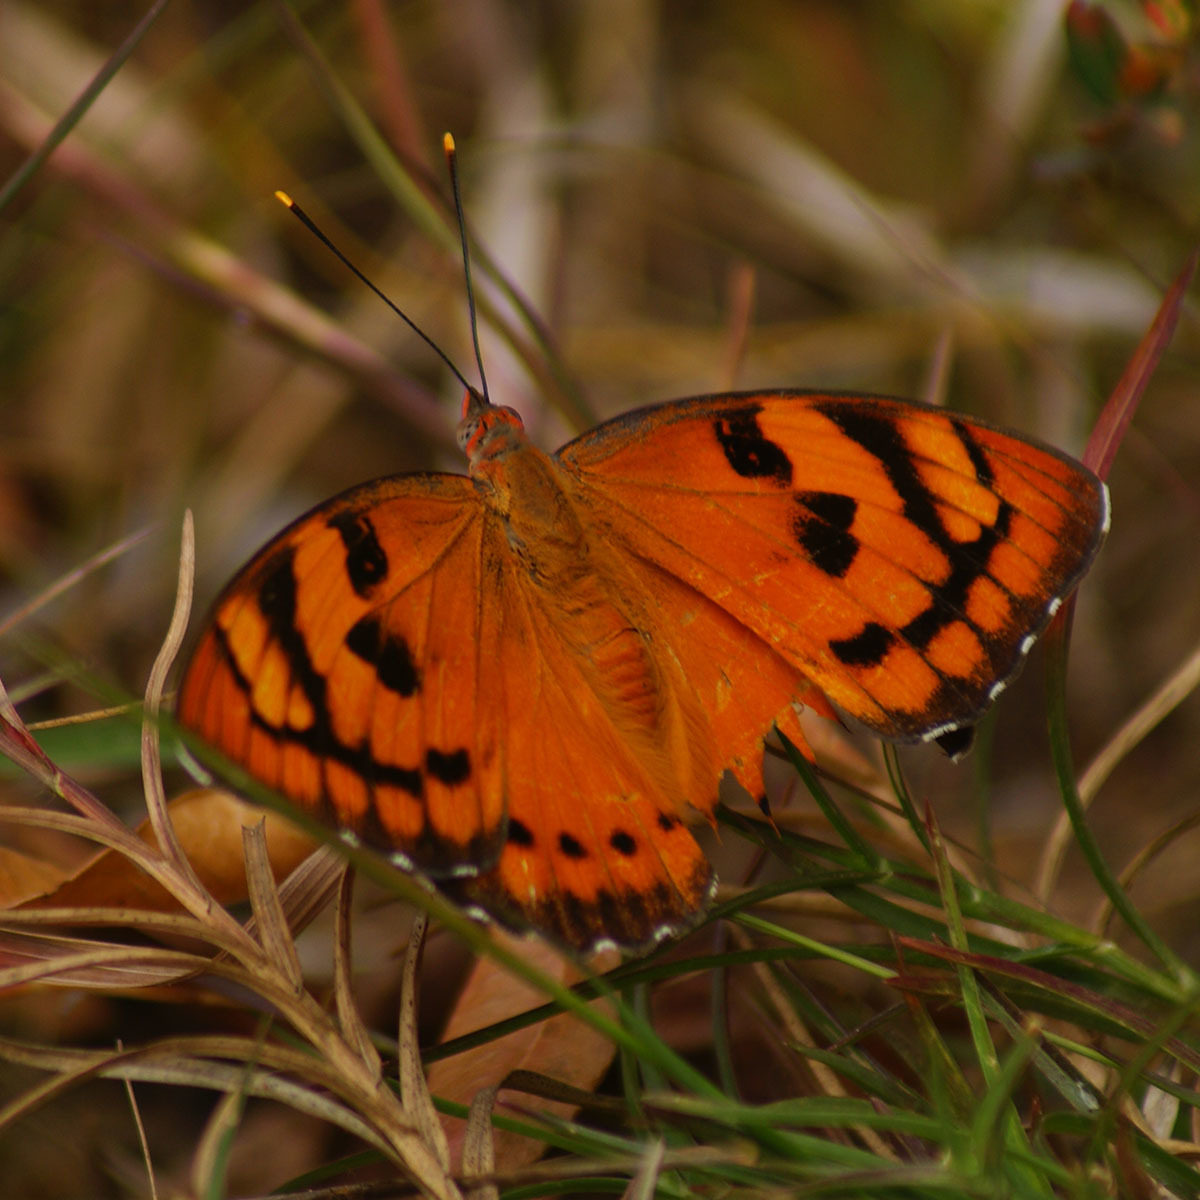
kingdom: Animalia
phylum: Arthropoda
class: Insecta
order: Lepidoptera
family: Nymphalidae
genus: Euthalia
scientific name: Euthalia nais
